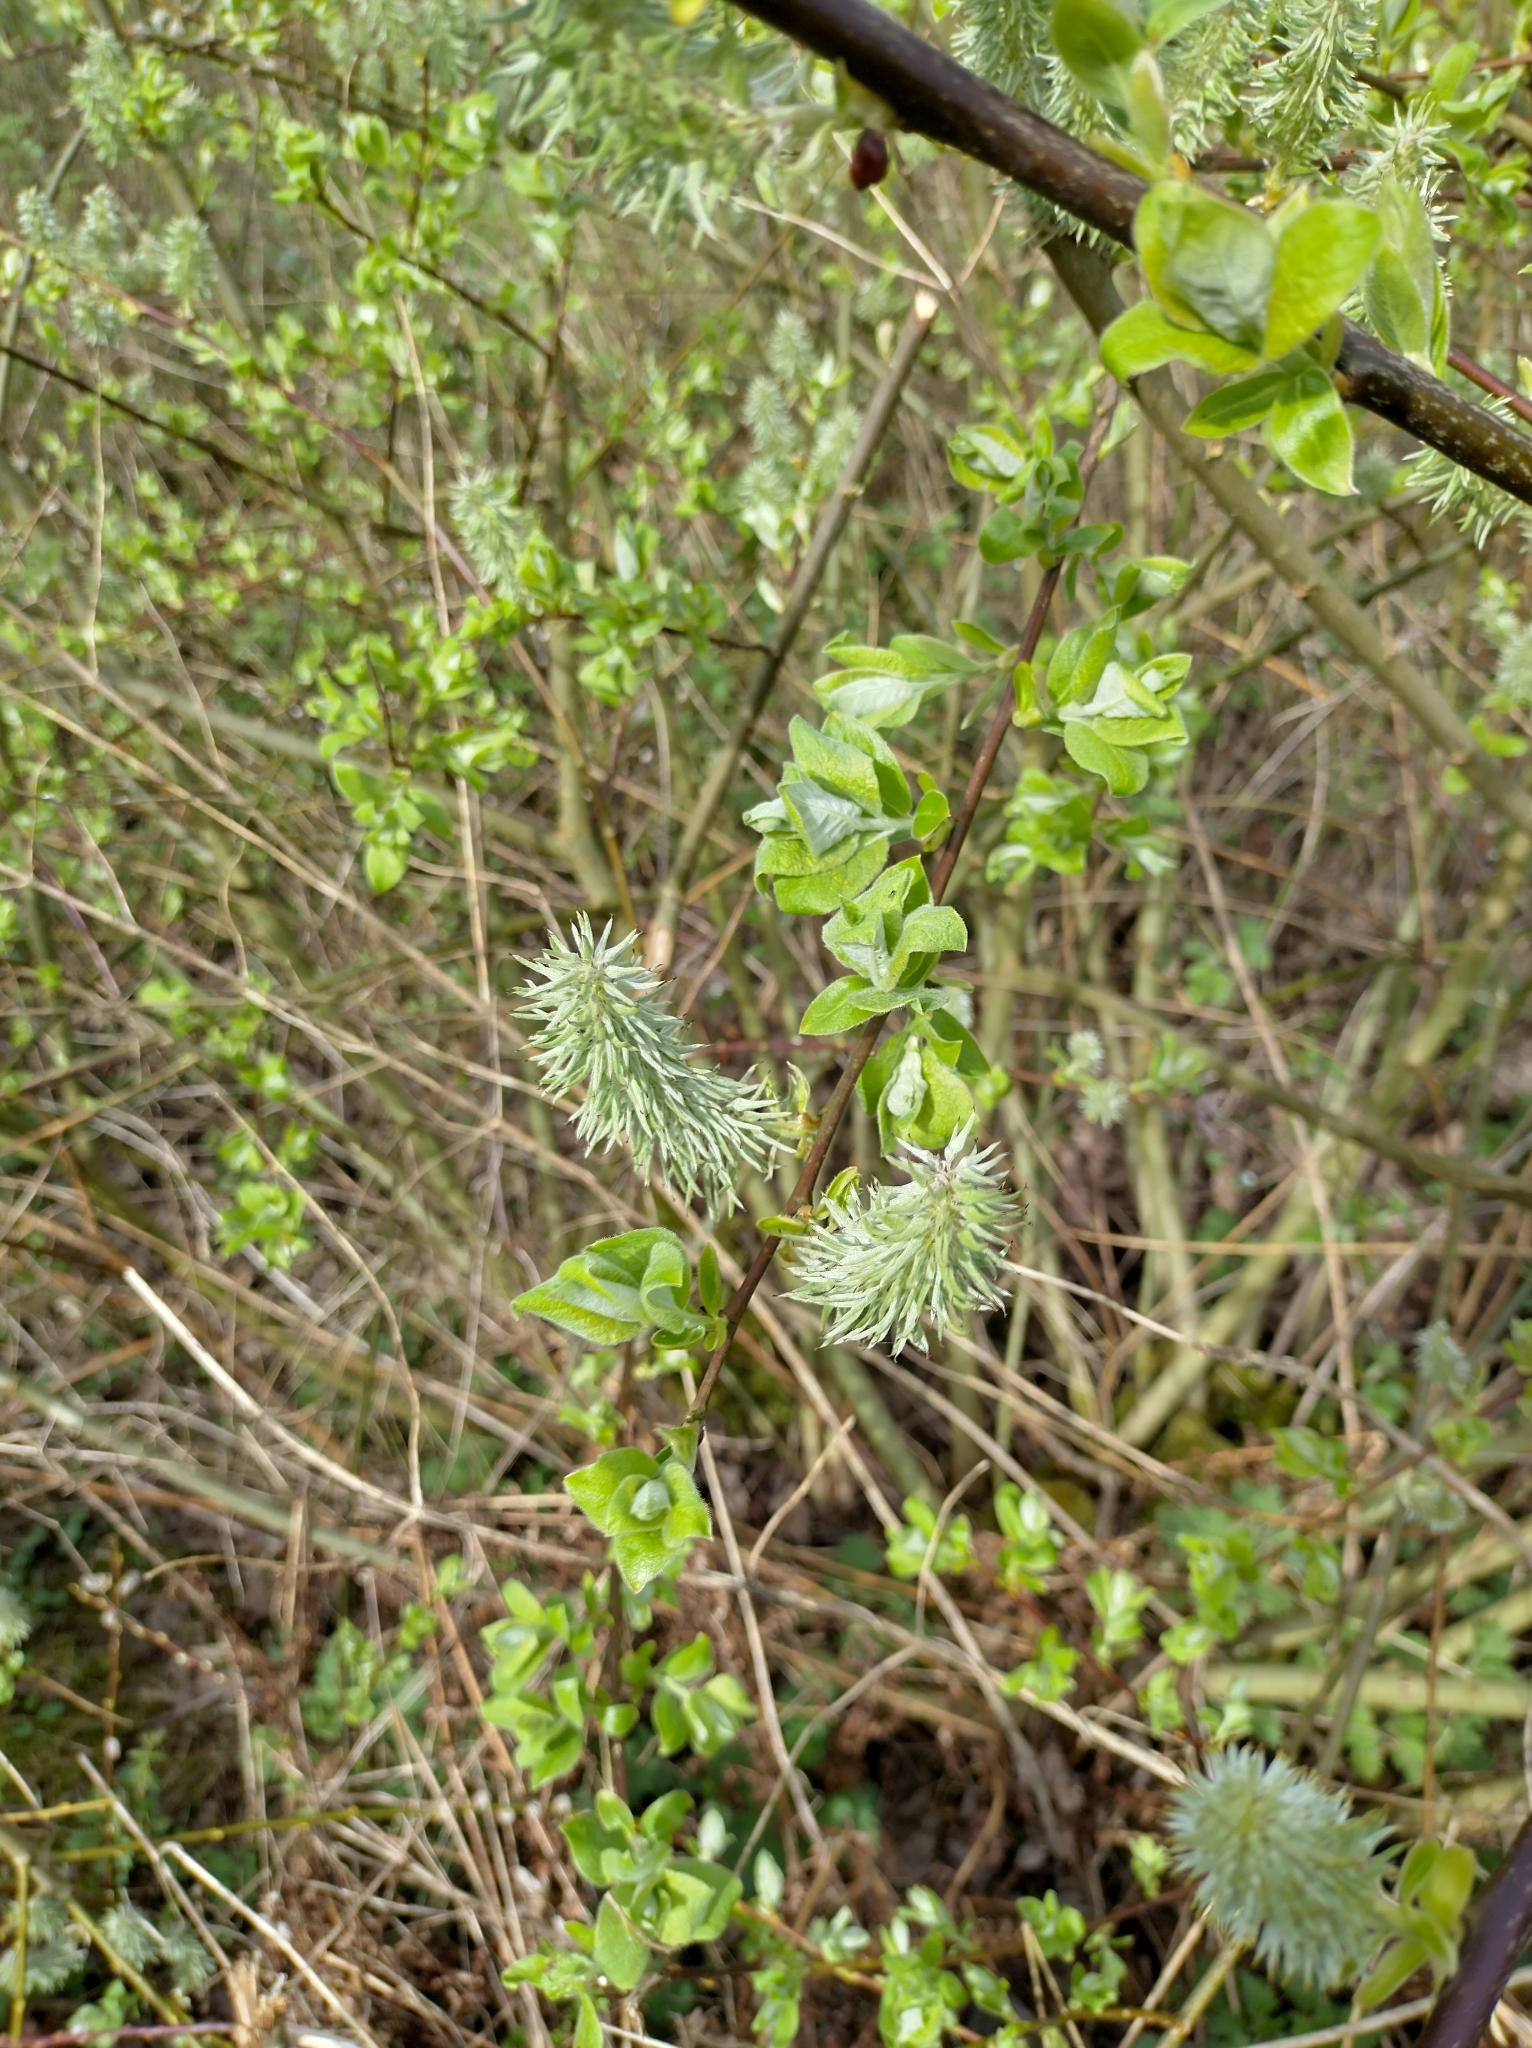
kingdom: Plantae
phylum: Tracheophyta
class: Magnoliopsida
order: Malpighiales
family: Salicaceae
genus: Salix
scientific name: Salix caprea
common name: Goat willow
